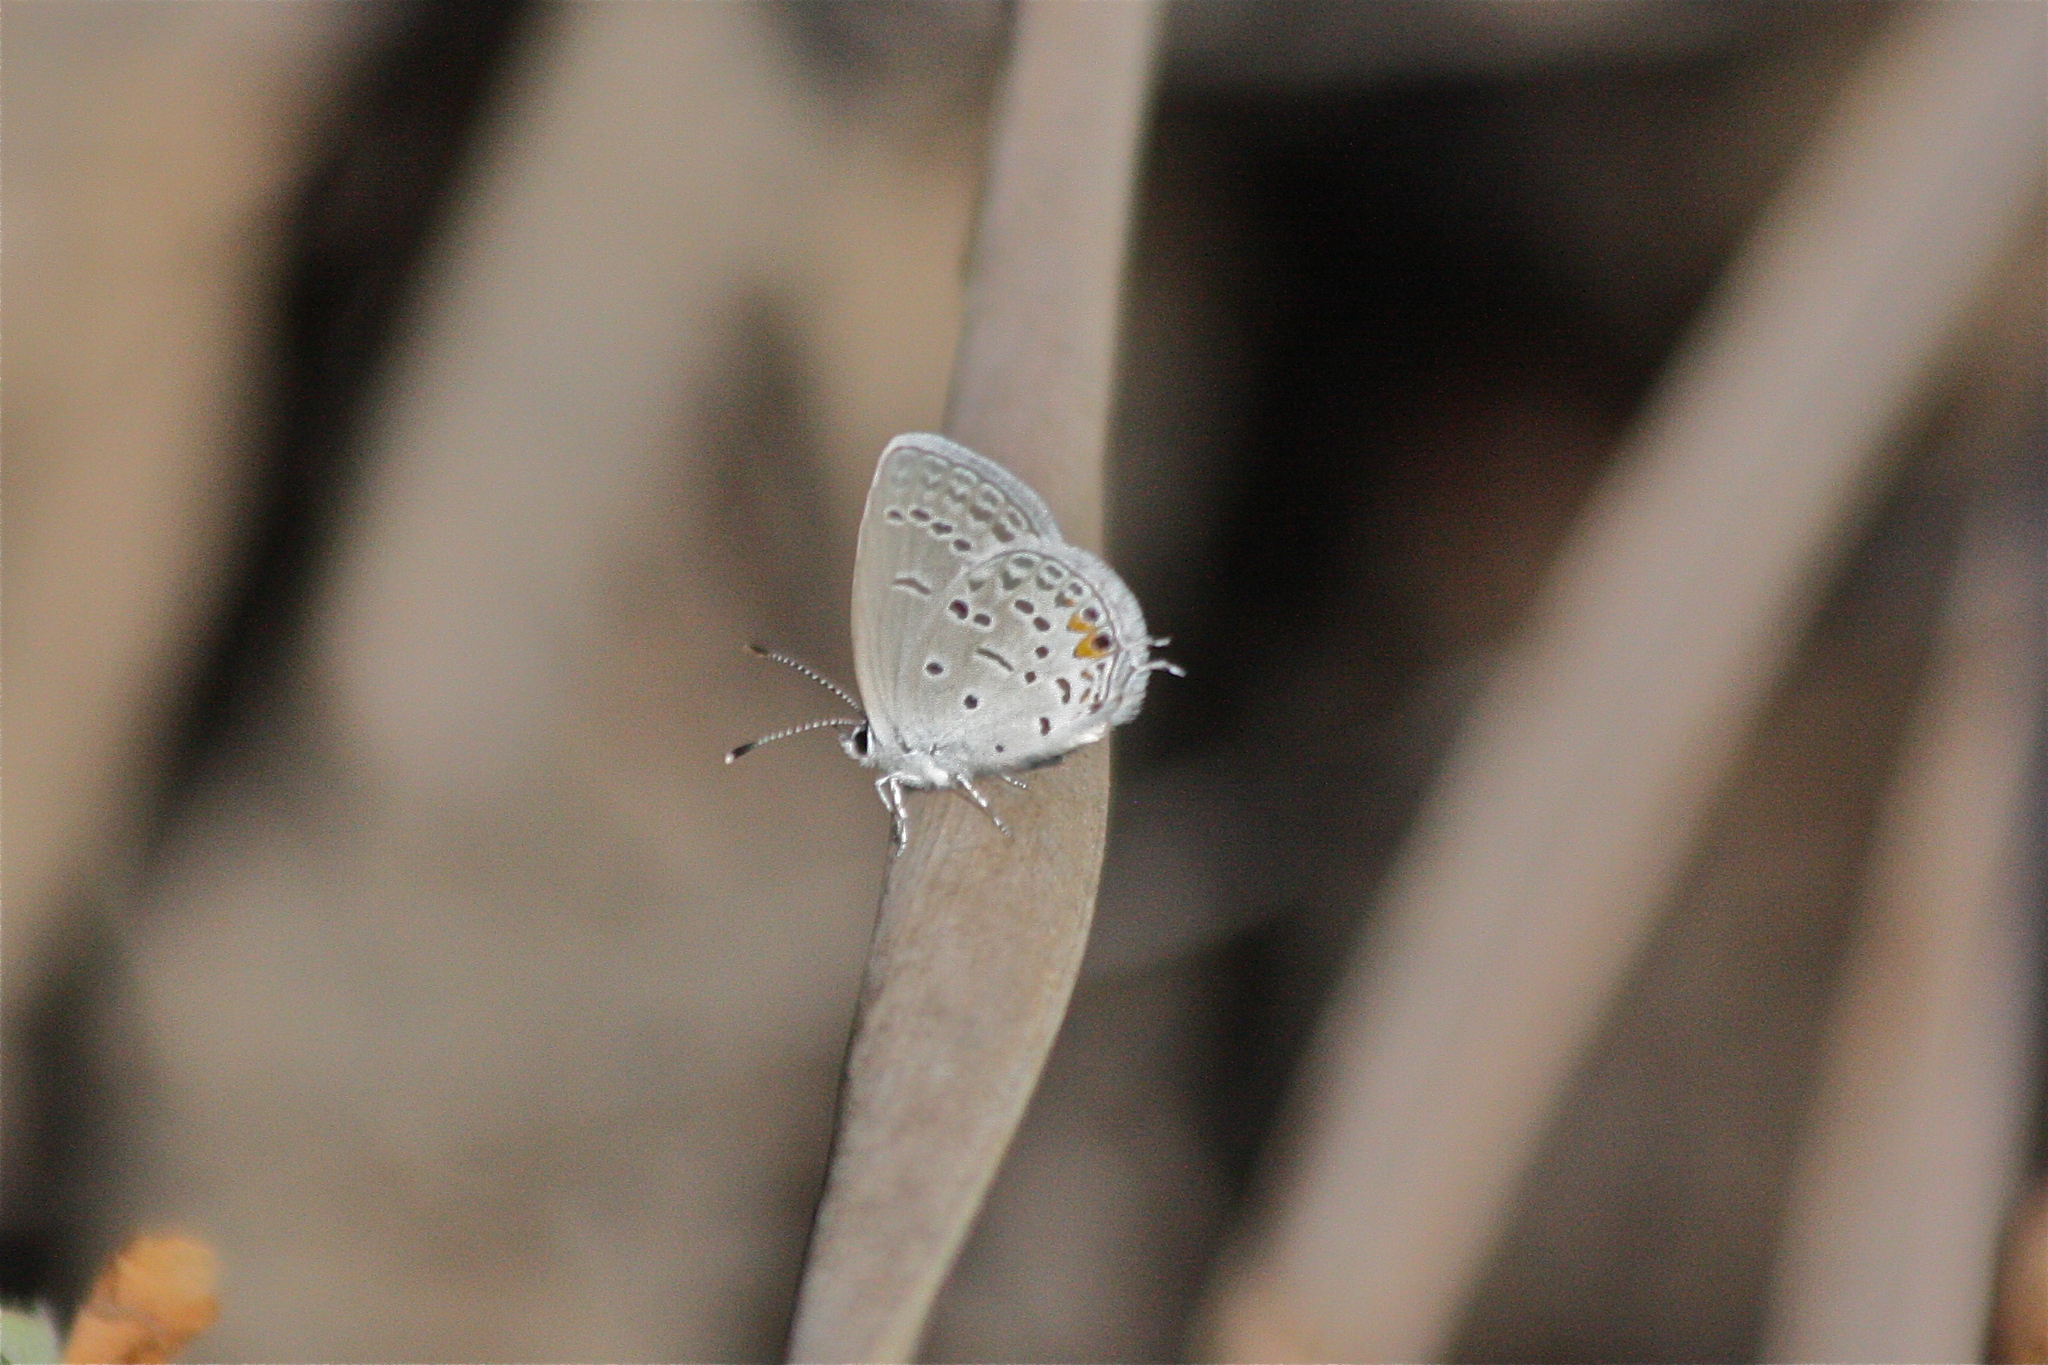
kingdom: Animalia
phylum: Arthropoda
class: Insecta
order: Lepidoptera
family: Lycaenidae
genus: Elkalyce
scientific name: Elkalyce comyntas
